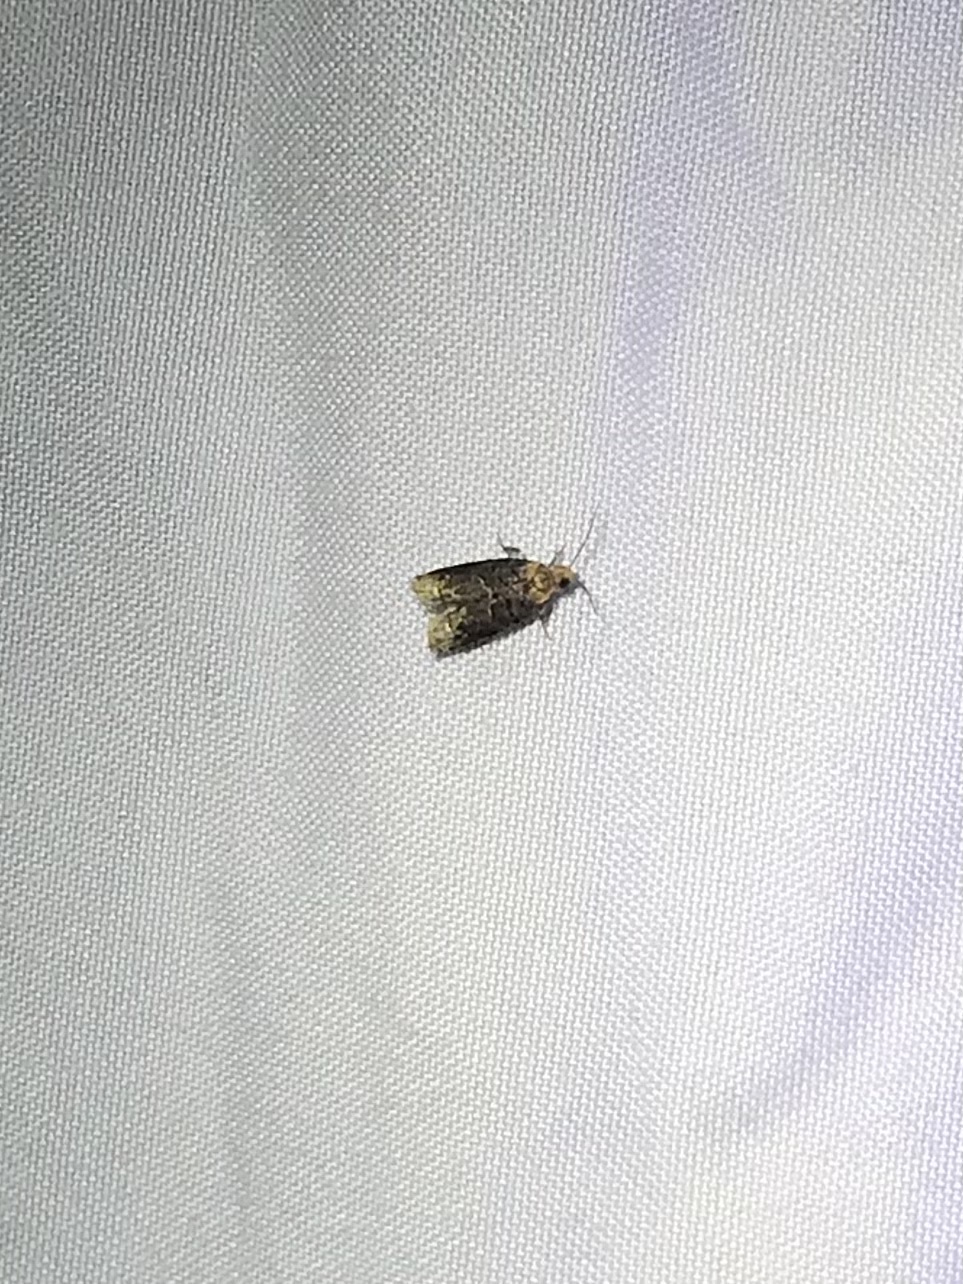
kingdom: Animalia
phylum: Arthropoda
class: Insecta
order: Lepidoptera
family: Tortricidae
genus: Eucosma
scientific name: Eucosma ochroterminana
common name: Buff-tipped eucosma moth
